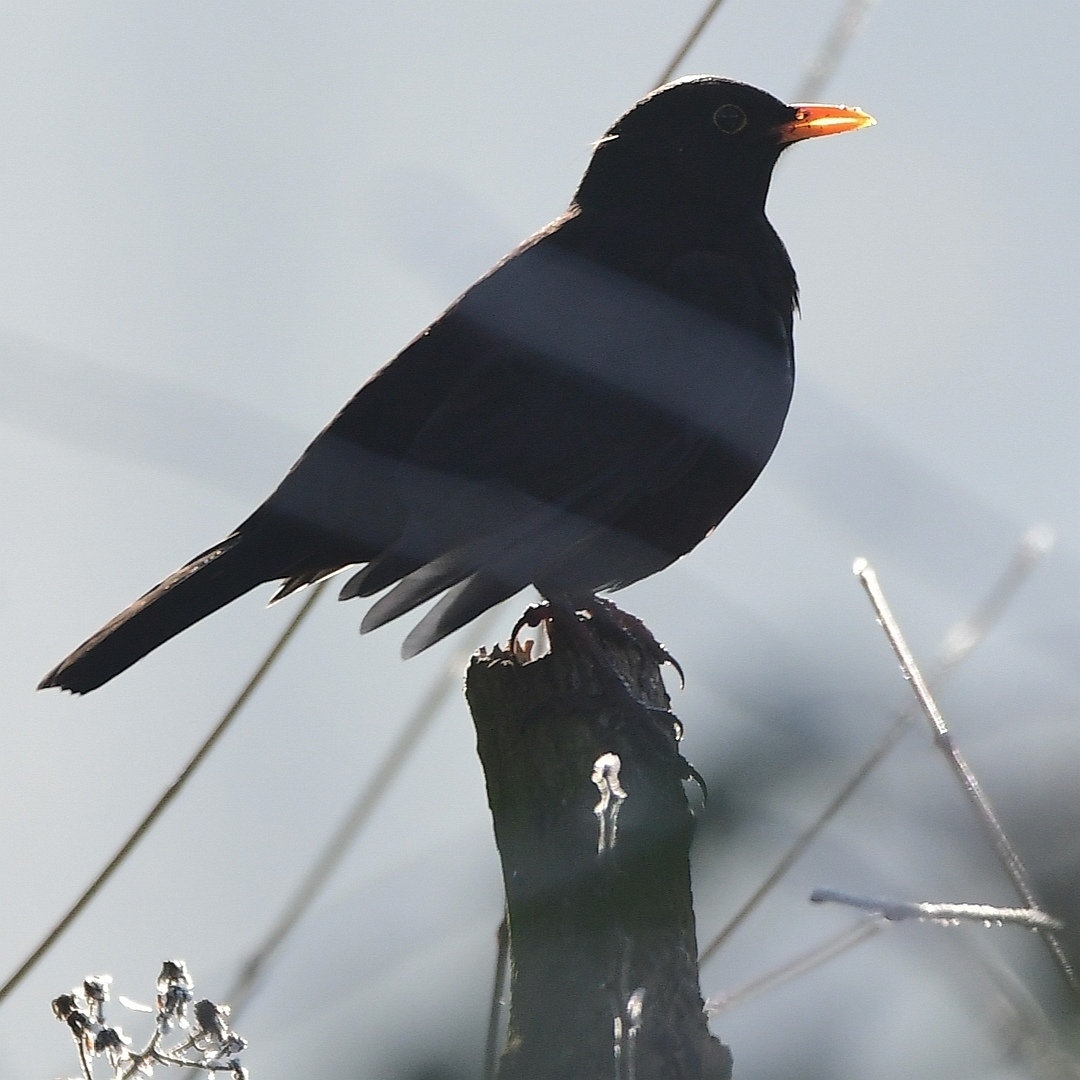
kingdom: Animalia
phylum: Chordata
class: Aves
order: Passeriformes
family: Turdidae
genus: Turdus
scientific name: Turdus merula
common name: Common blackbird
